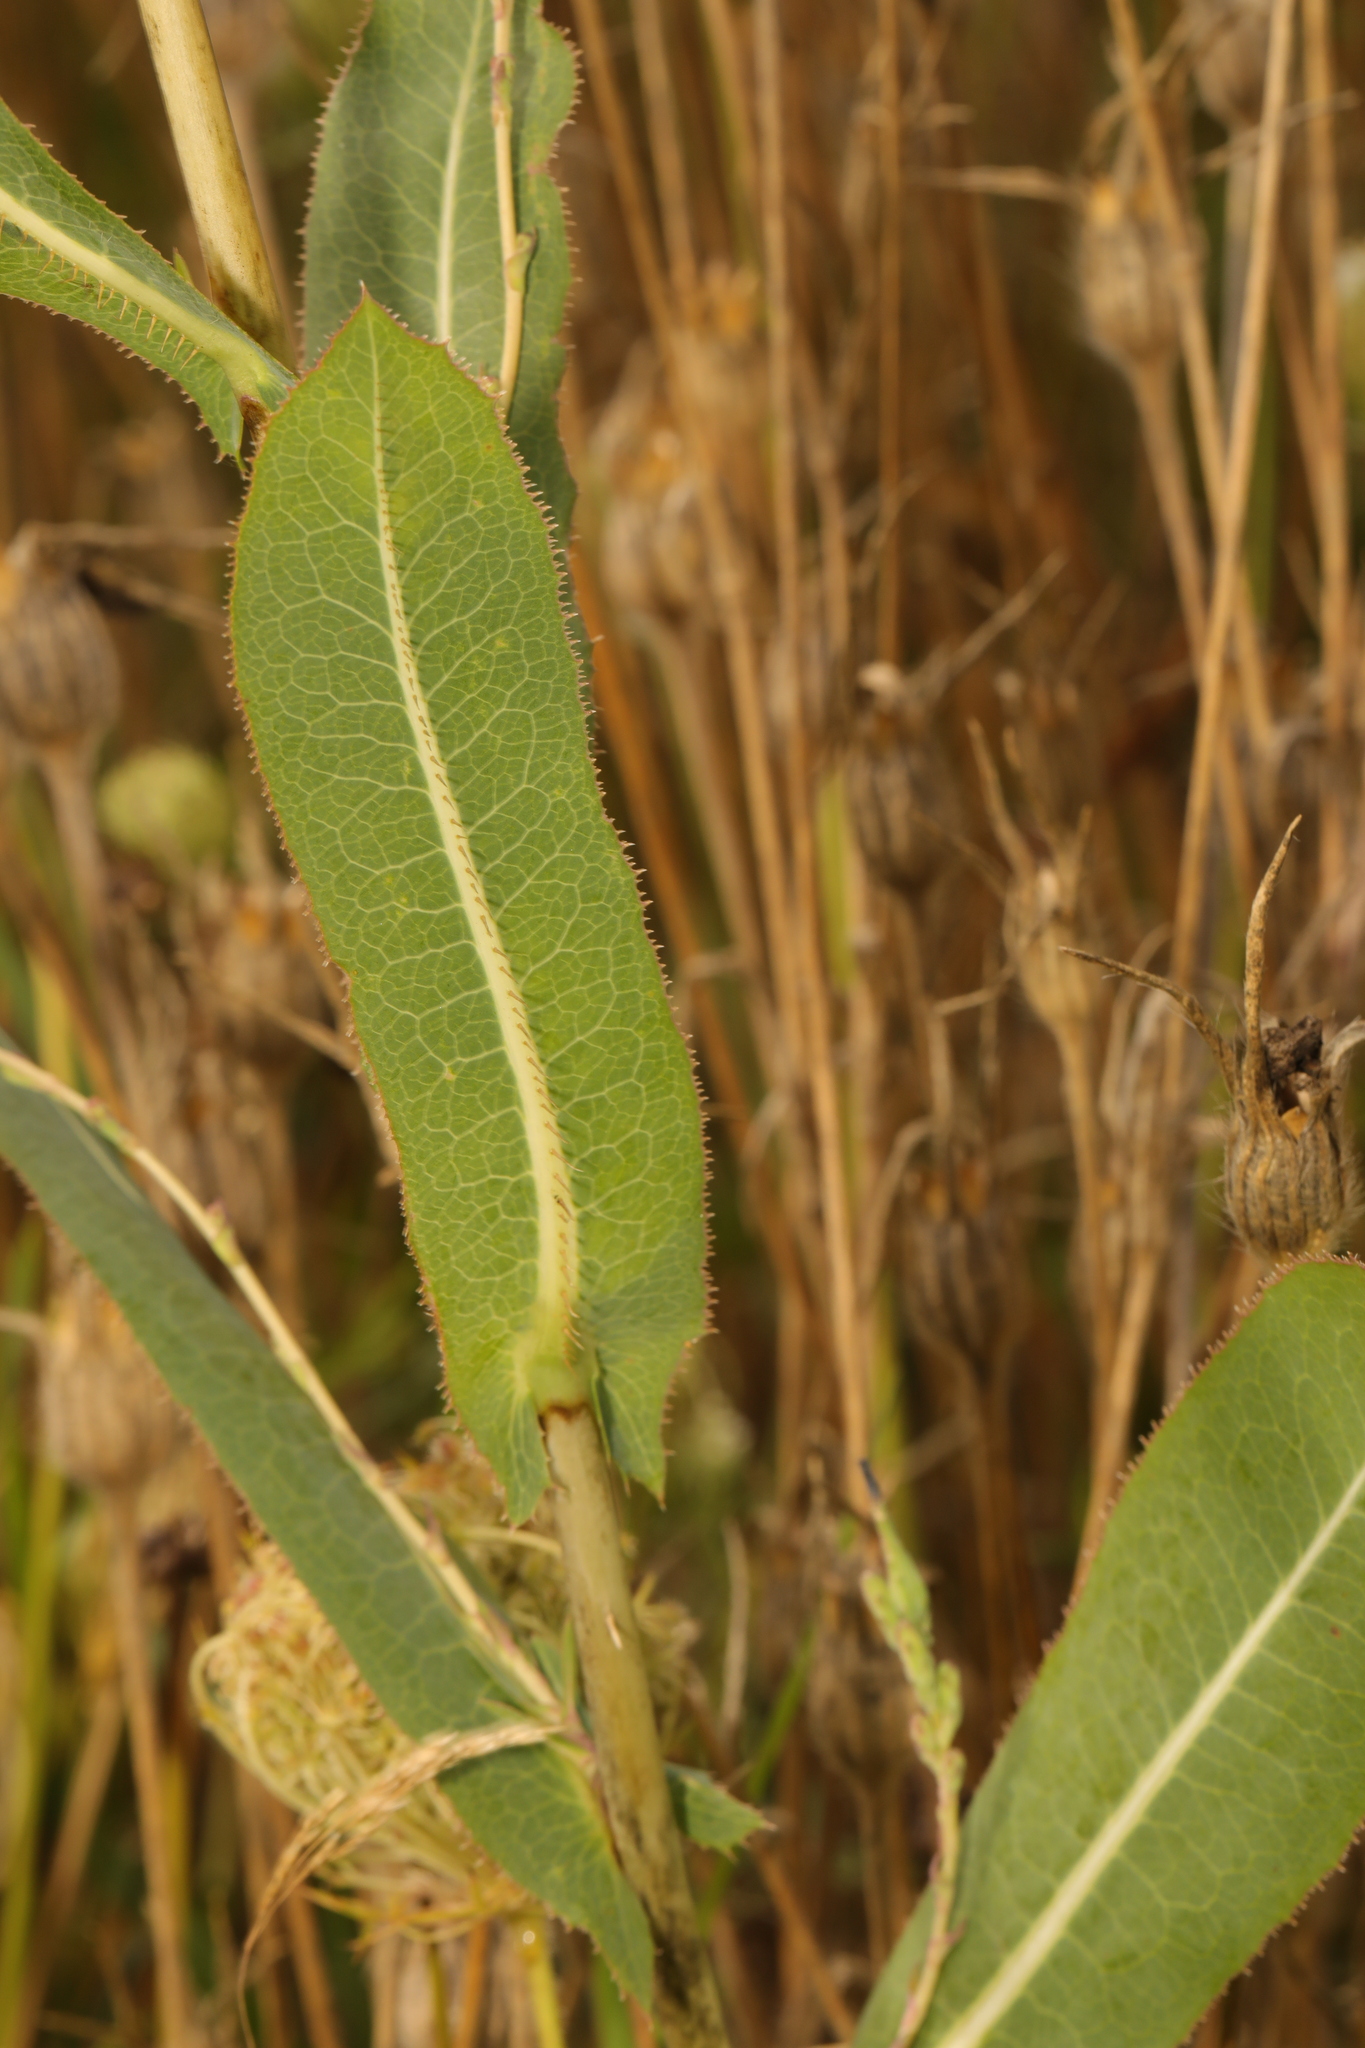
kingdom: Plantae
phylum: Tracheophyta
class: Magnoliopsida
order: Asterales
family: Asteraceae
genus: Lactuca
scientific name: Lactuca serriola
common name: Prickly lettuce
